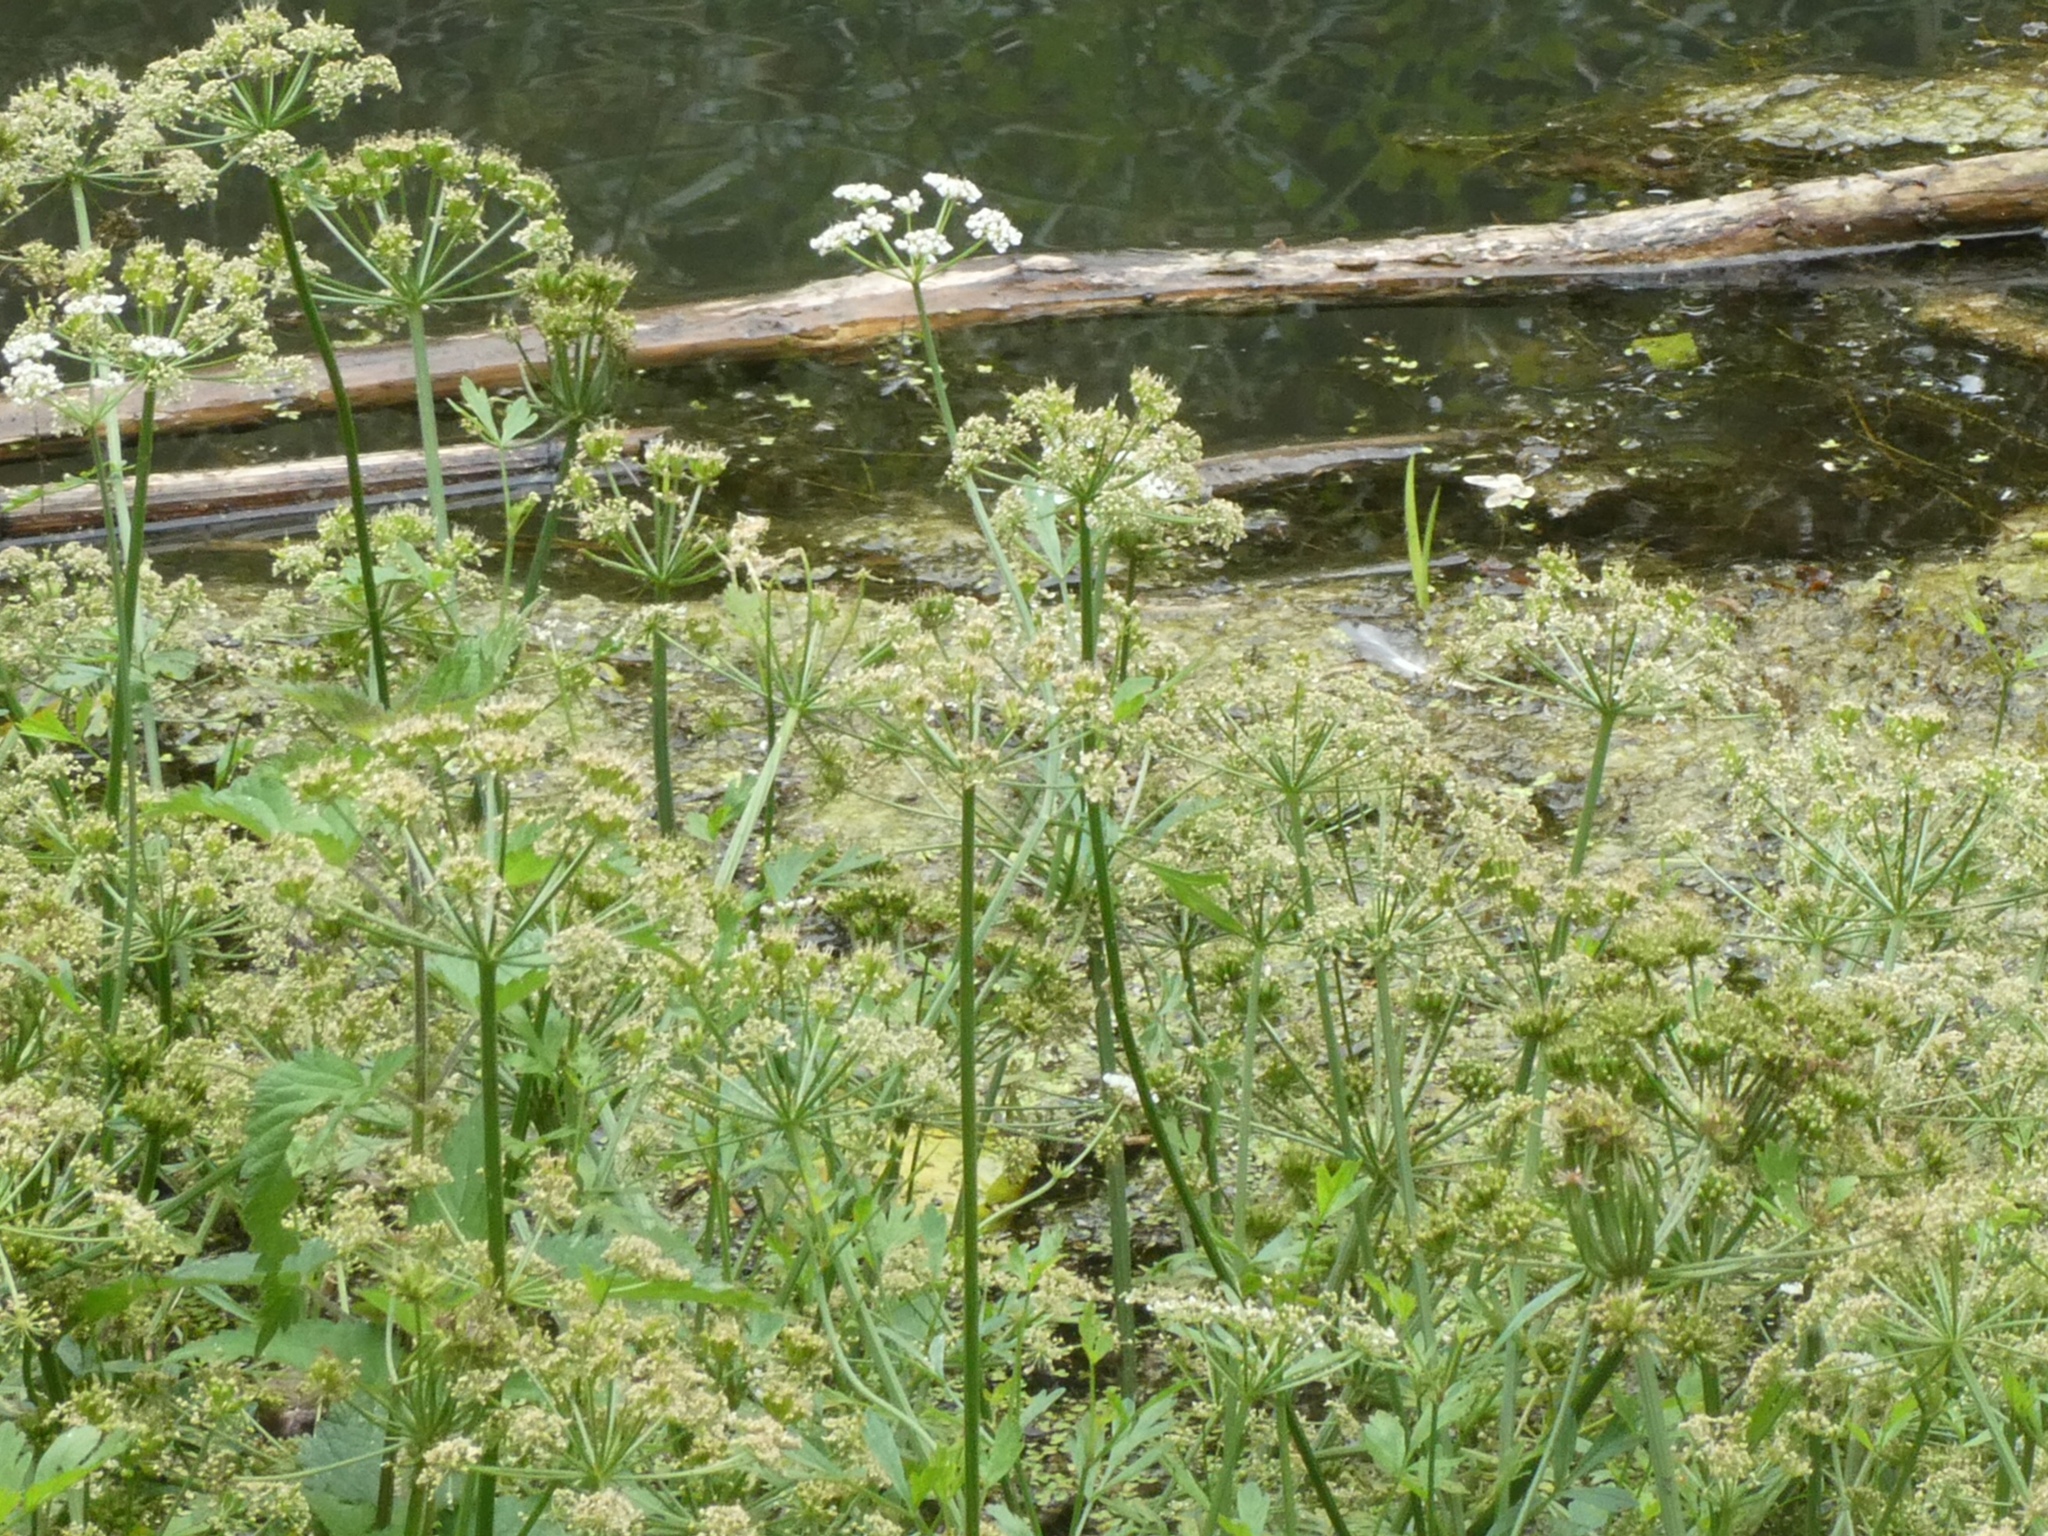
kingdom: Plantae
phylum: Tracheophyta
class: Magnoliopsida
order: Apiales
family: Apiaceae
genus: Oenanthe
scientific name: Oenanthe crocata
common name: Hemlock water-dropwort
